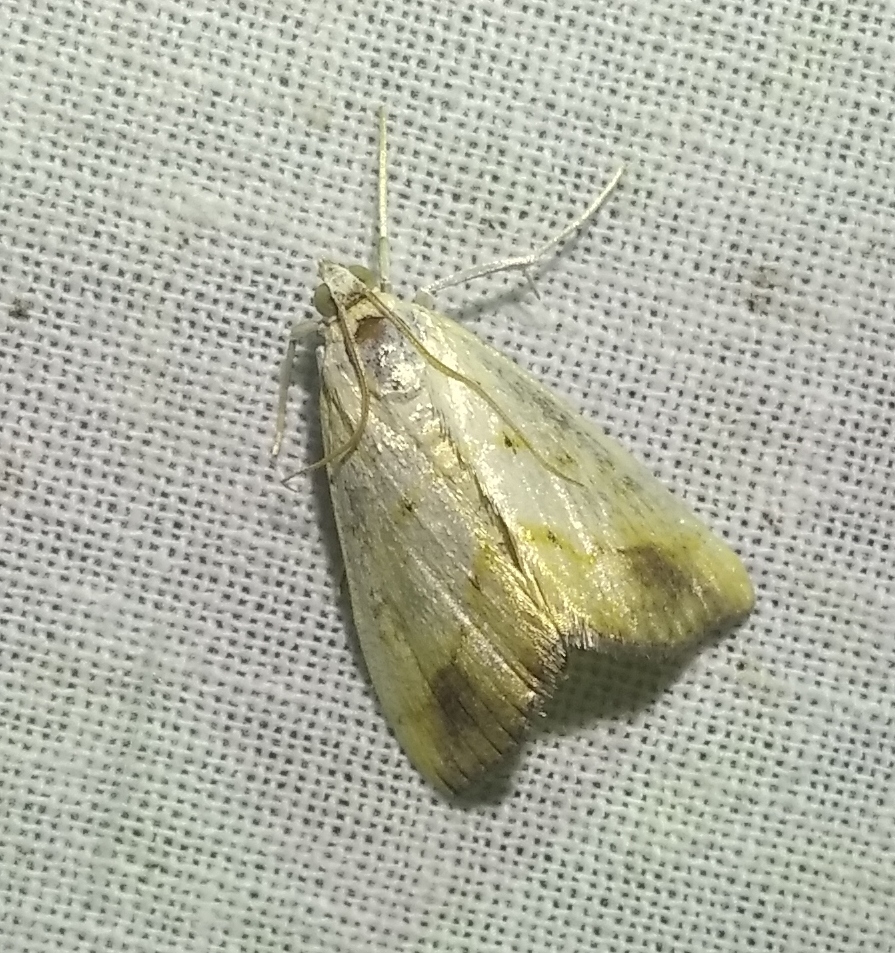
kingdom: Animalia
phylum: Arthropoda
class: Insecta
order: Lepidoptera
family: Crambidae
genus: Evergestis
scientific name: Evergestis extimalis
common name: Marbled yellow pearl
